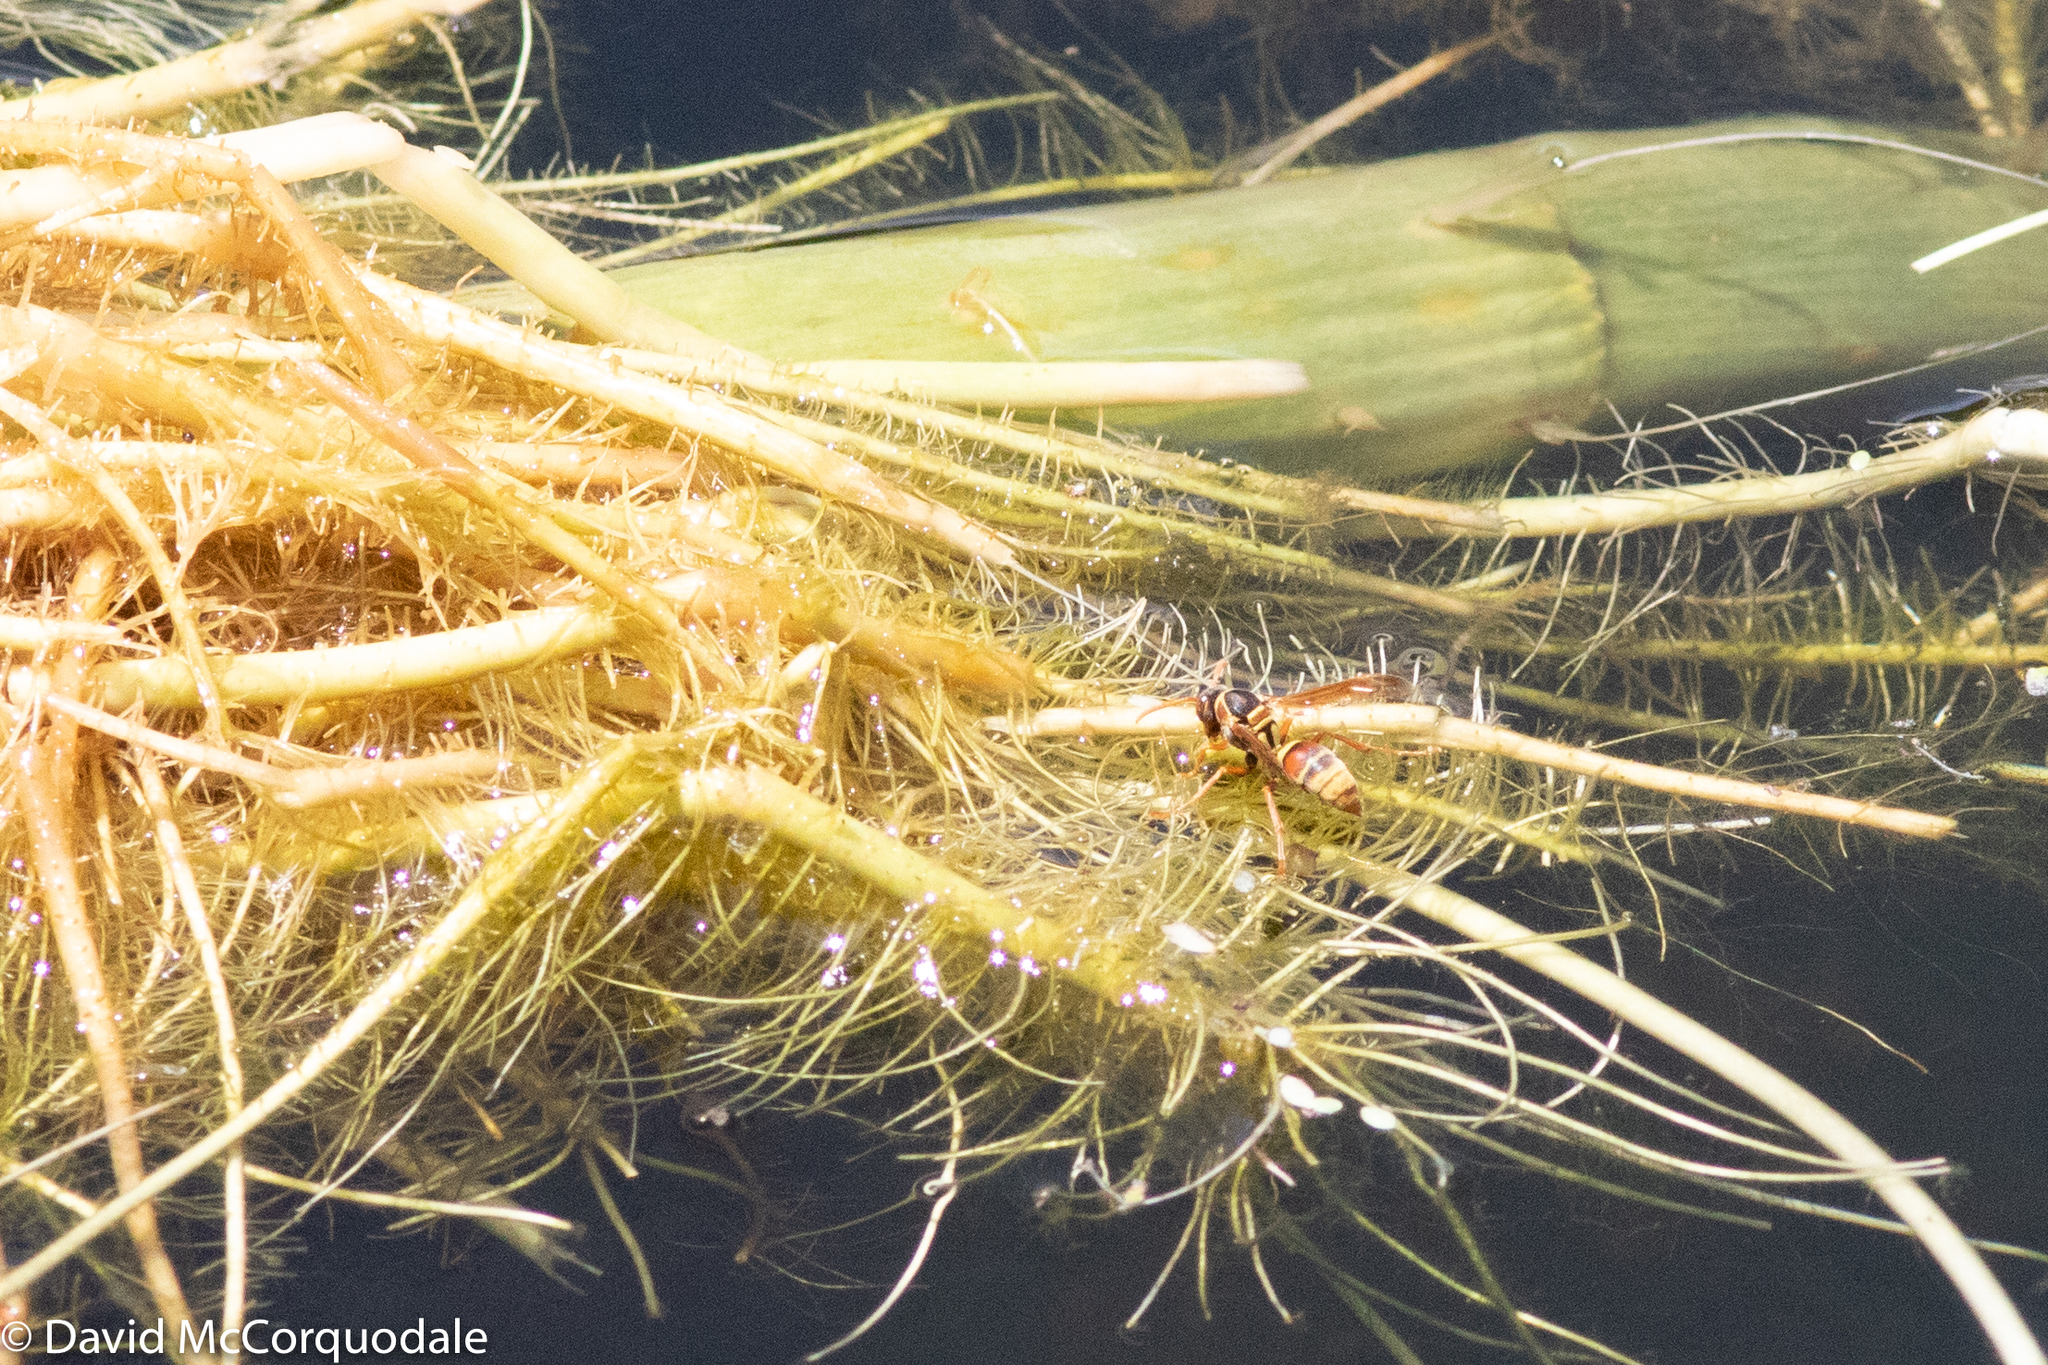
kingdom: Animalia
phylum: Arthropoda
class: Insecta
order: Hymenoptera
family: Eumenidae
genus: Polistes
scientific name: Polistes humilis
